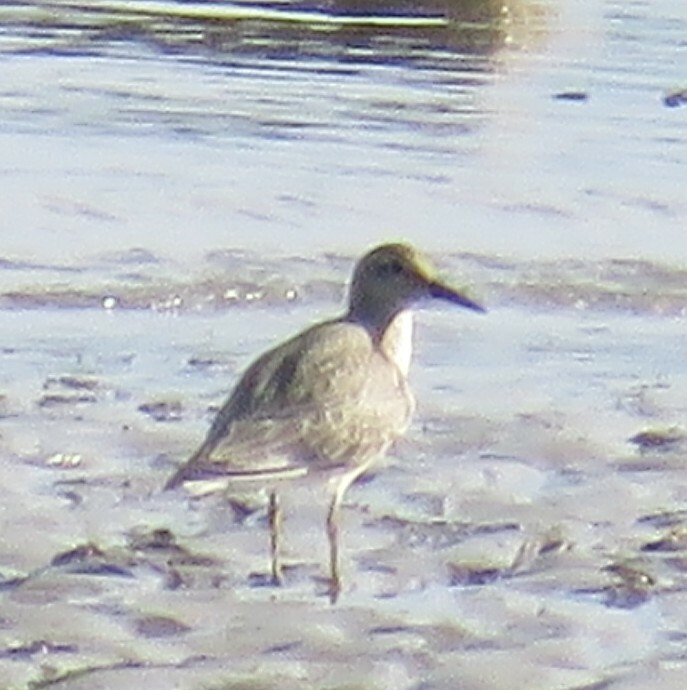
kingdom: Animalia
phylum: Chordata
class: Aves
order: Charadriiformes
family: Scolopacidae
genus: Calidris
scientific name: Calidris canutus
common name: Red knot
